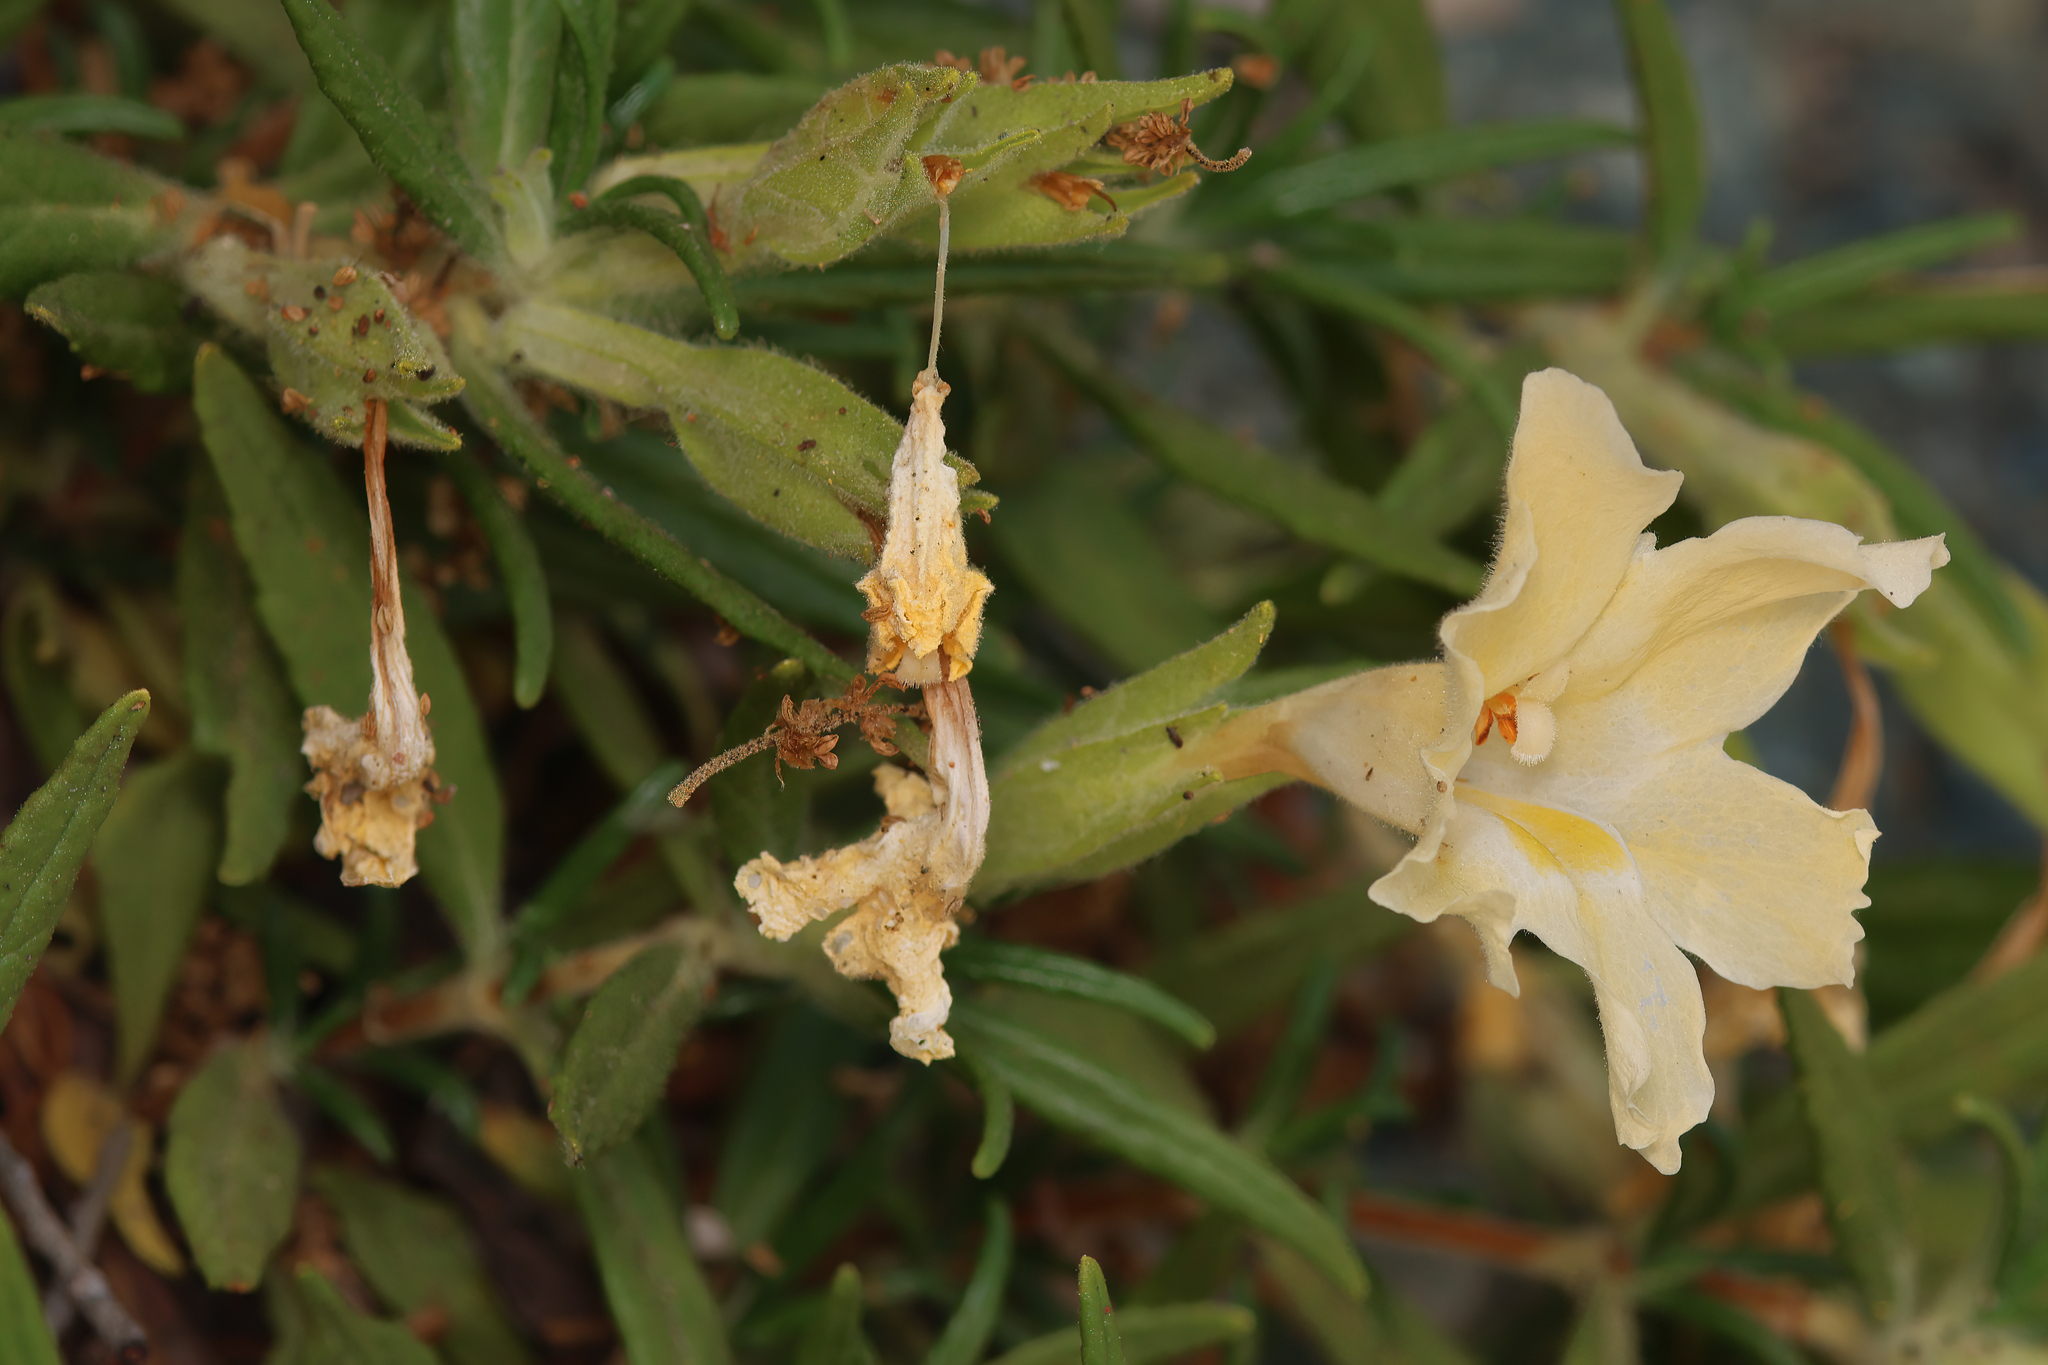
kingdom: Plantae
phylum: Tracheophyta
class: Magnoliopsida
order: Lamiales
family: Phrymaceae
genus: Diplacus
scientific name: Diplacus calycinus
